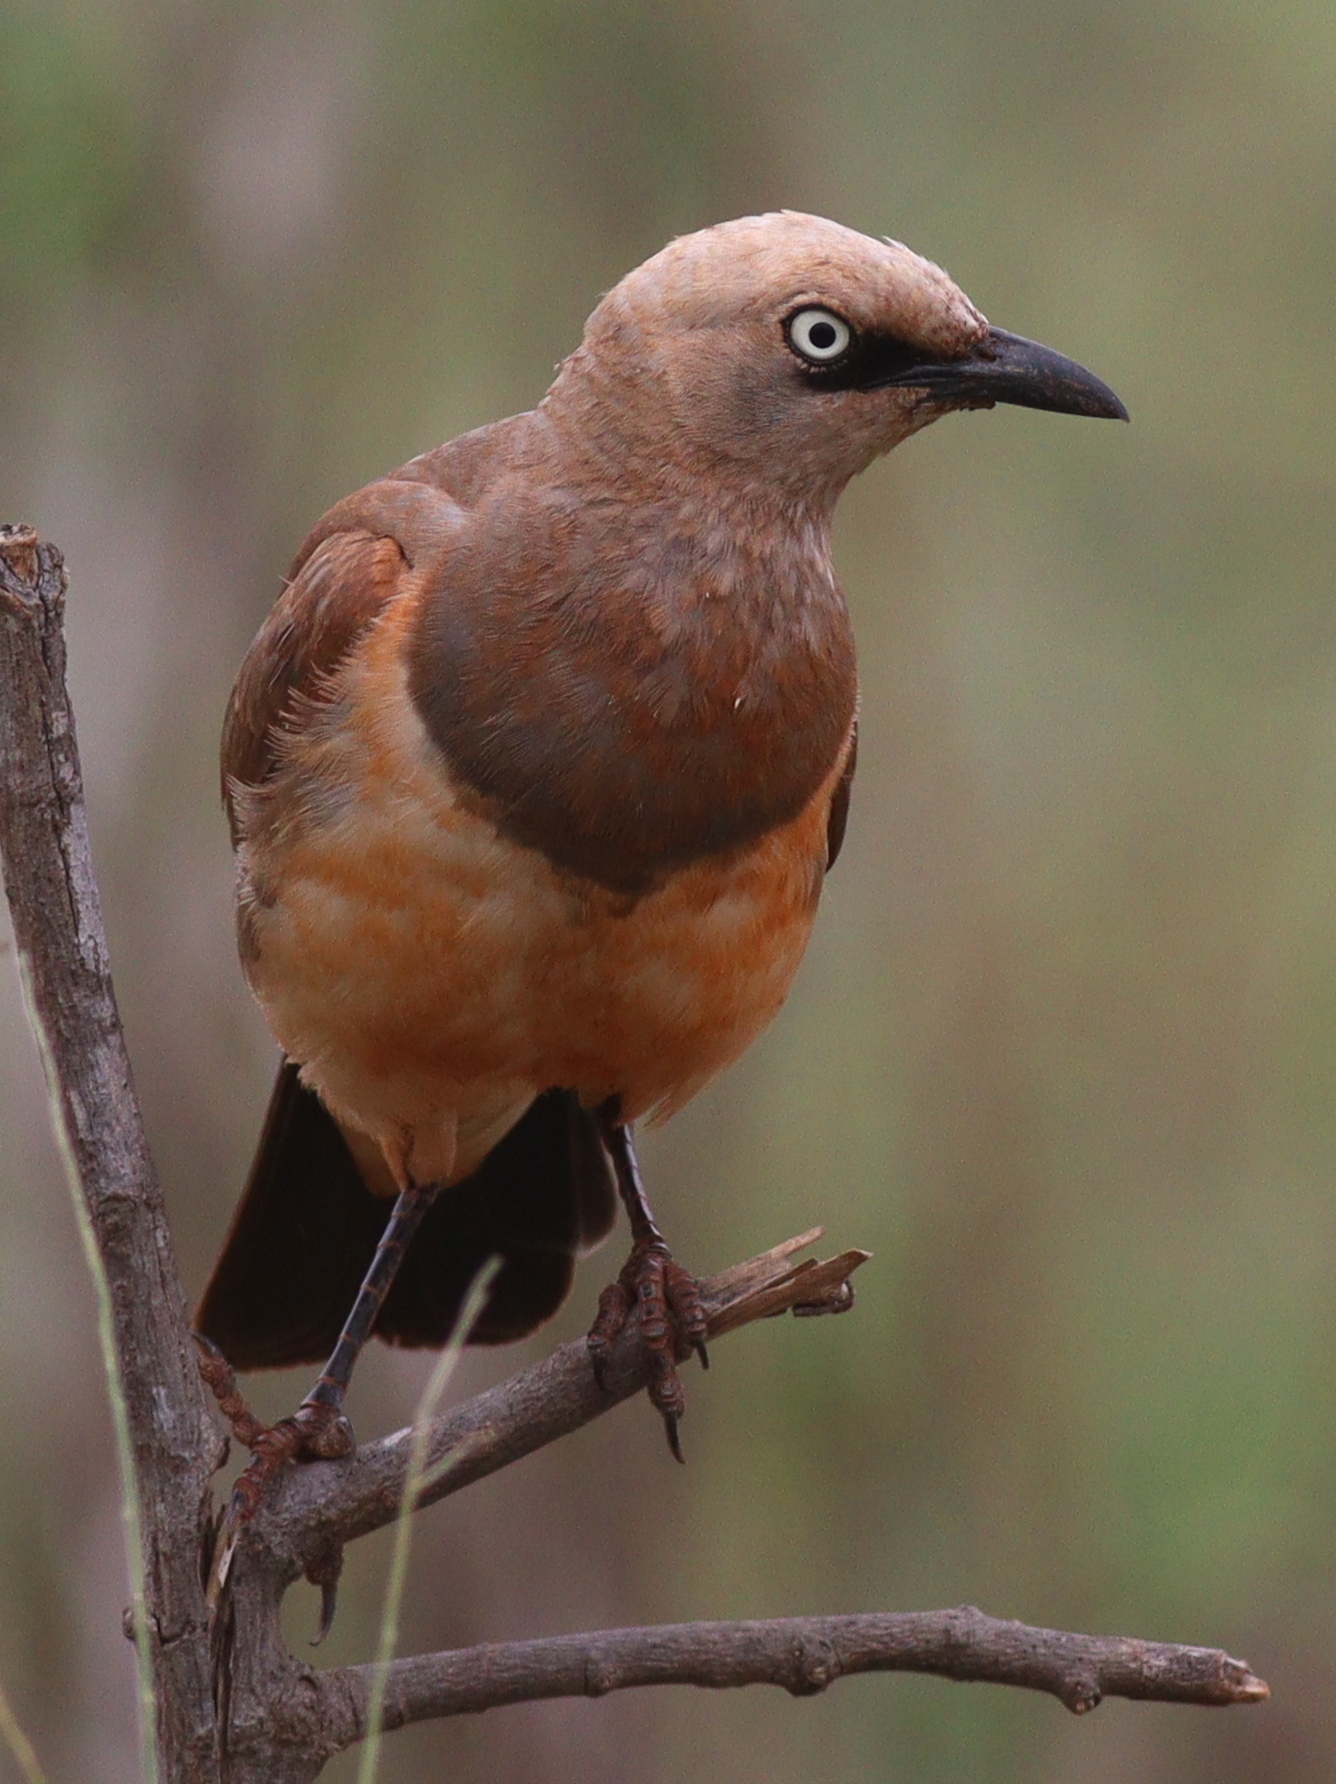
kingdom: Animalia
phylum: Chordata
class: Aves
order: Passeriformes
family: Sturnidae
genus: Lamprotornis
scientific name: Lamprotornis fischeri
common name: Fischer's starling
